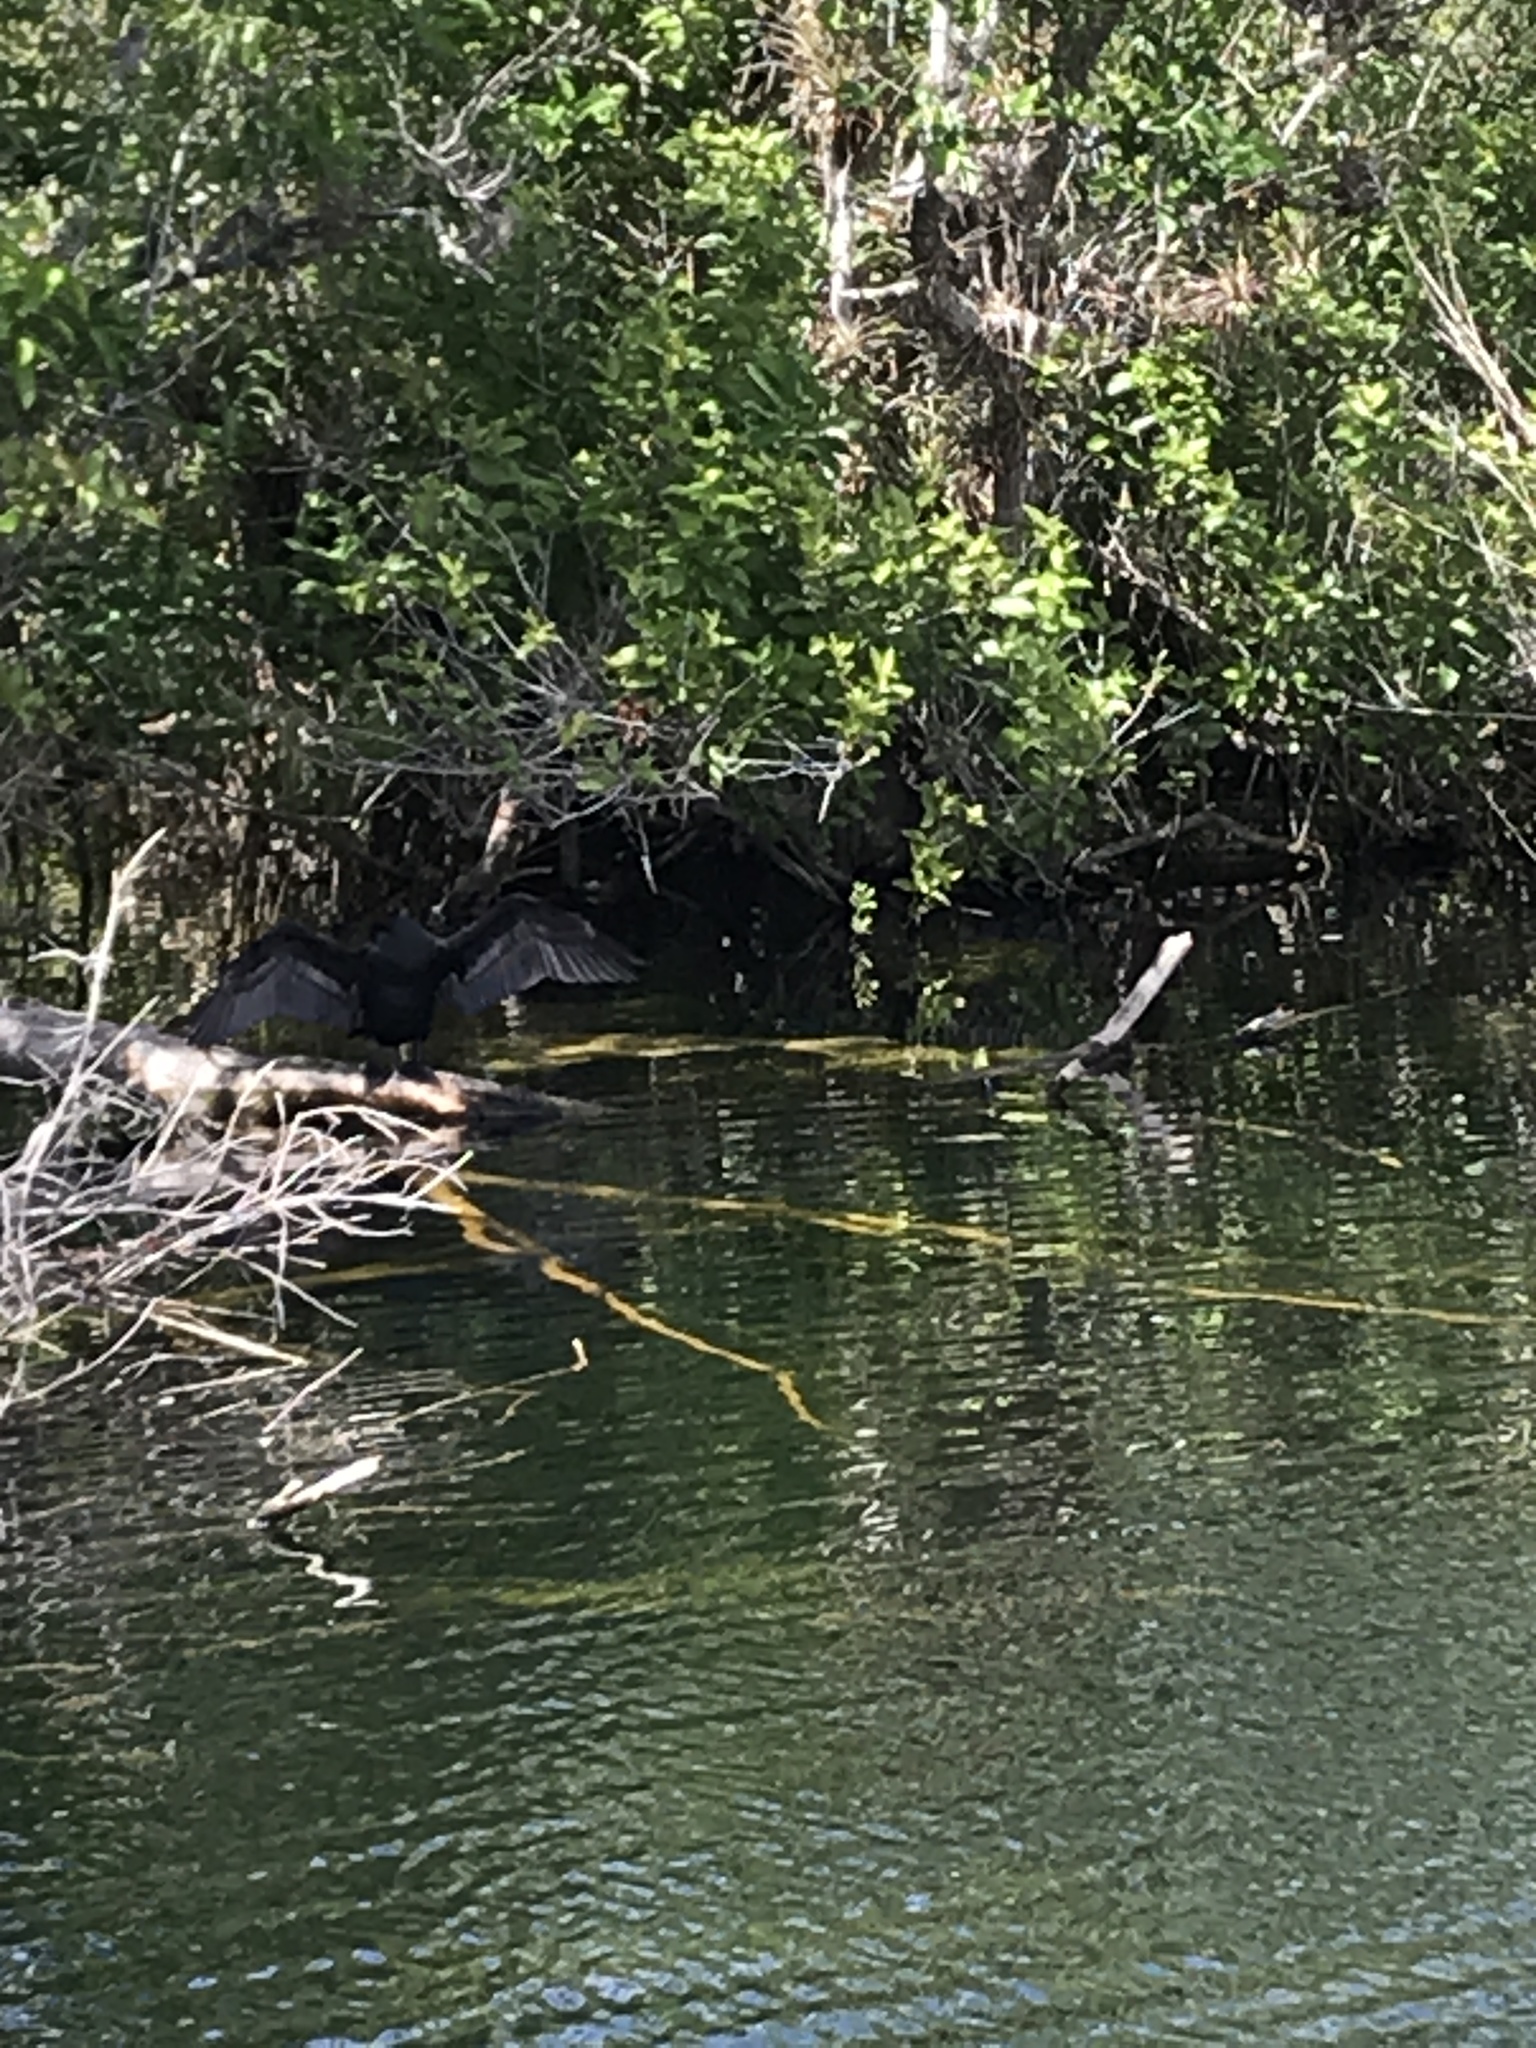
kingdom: Animalia
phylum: Chordata
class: Aves
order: Suliformes
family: Phalacrocoracidae
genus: Phalacrocorax
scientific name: Phalacrocorax auritus
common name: Double-crested cormorant
